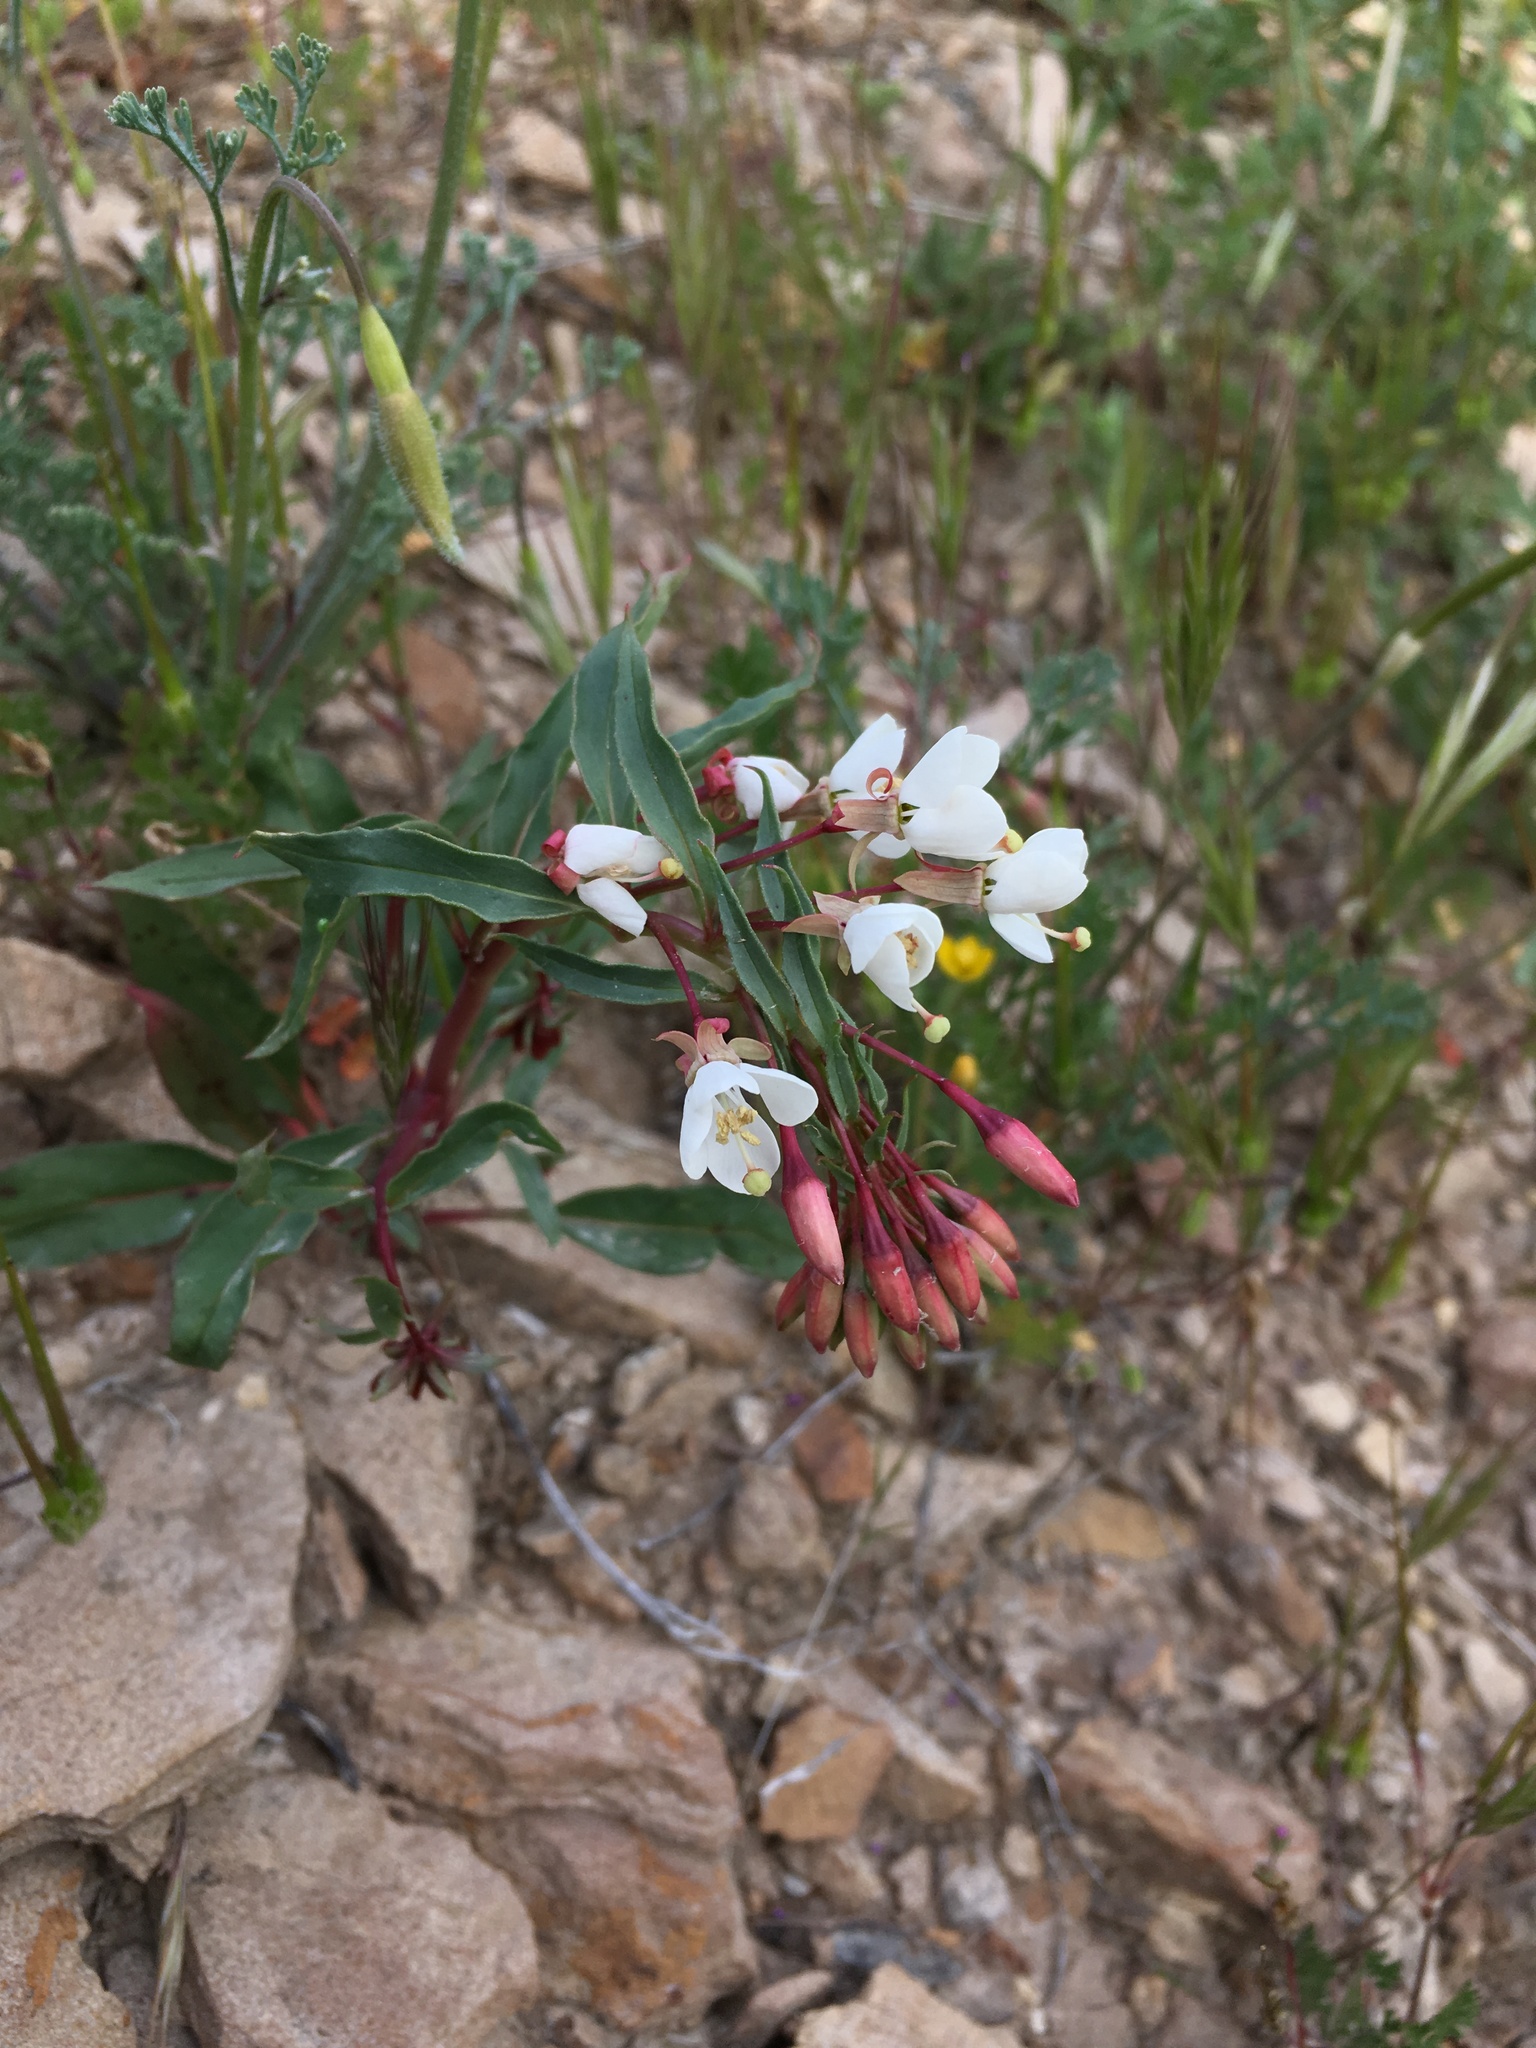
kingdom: Plantae
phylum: Tracheophyta
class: Magnoliopsida
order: Myrtales
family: Onagraceae
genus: Eremothera
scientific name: Eremothera boothii
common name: Booth's evening primrose
